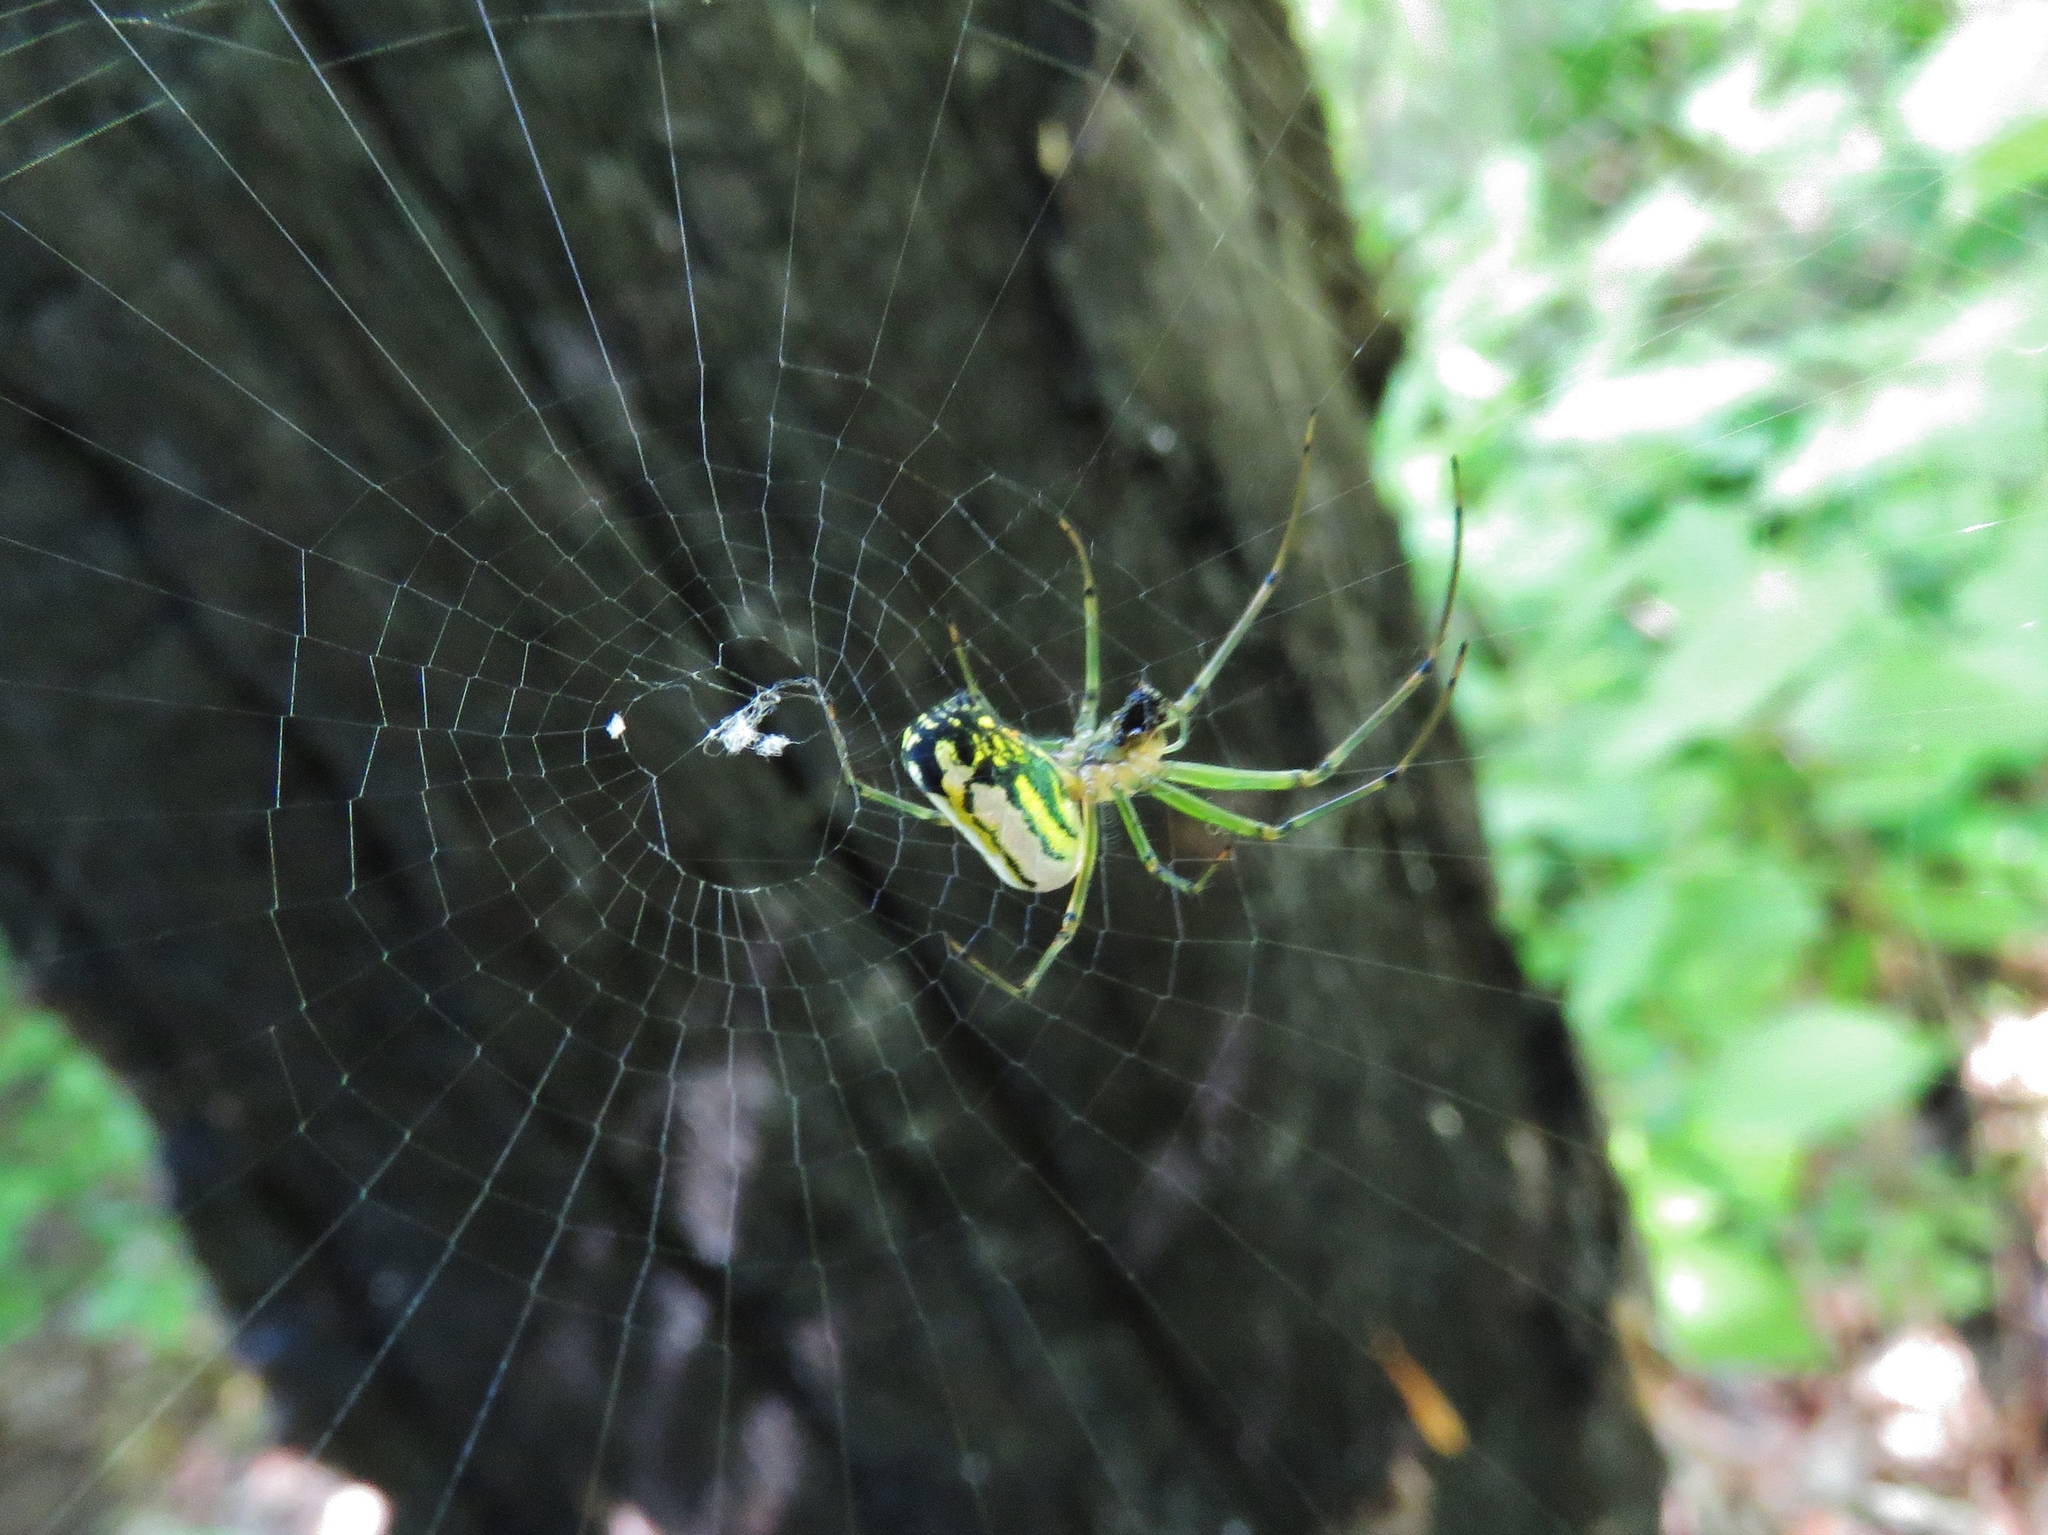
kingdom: Animalia
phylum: Arthropoda
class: Arachnida
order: Araneae
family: Tetragnathidae
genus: Leucauge
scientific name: Leucauge venusta
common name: Longjawed orb weavers
